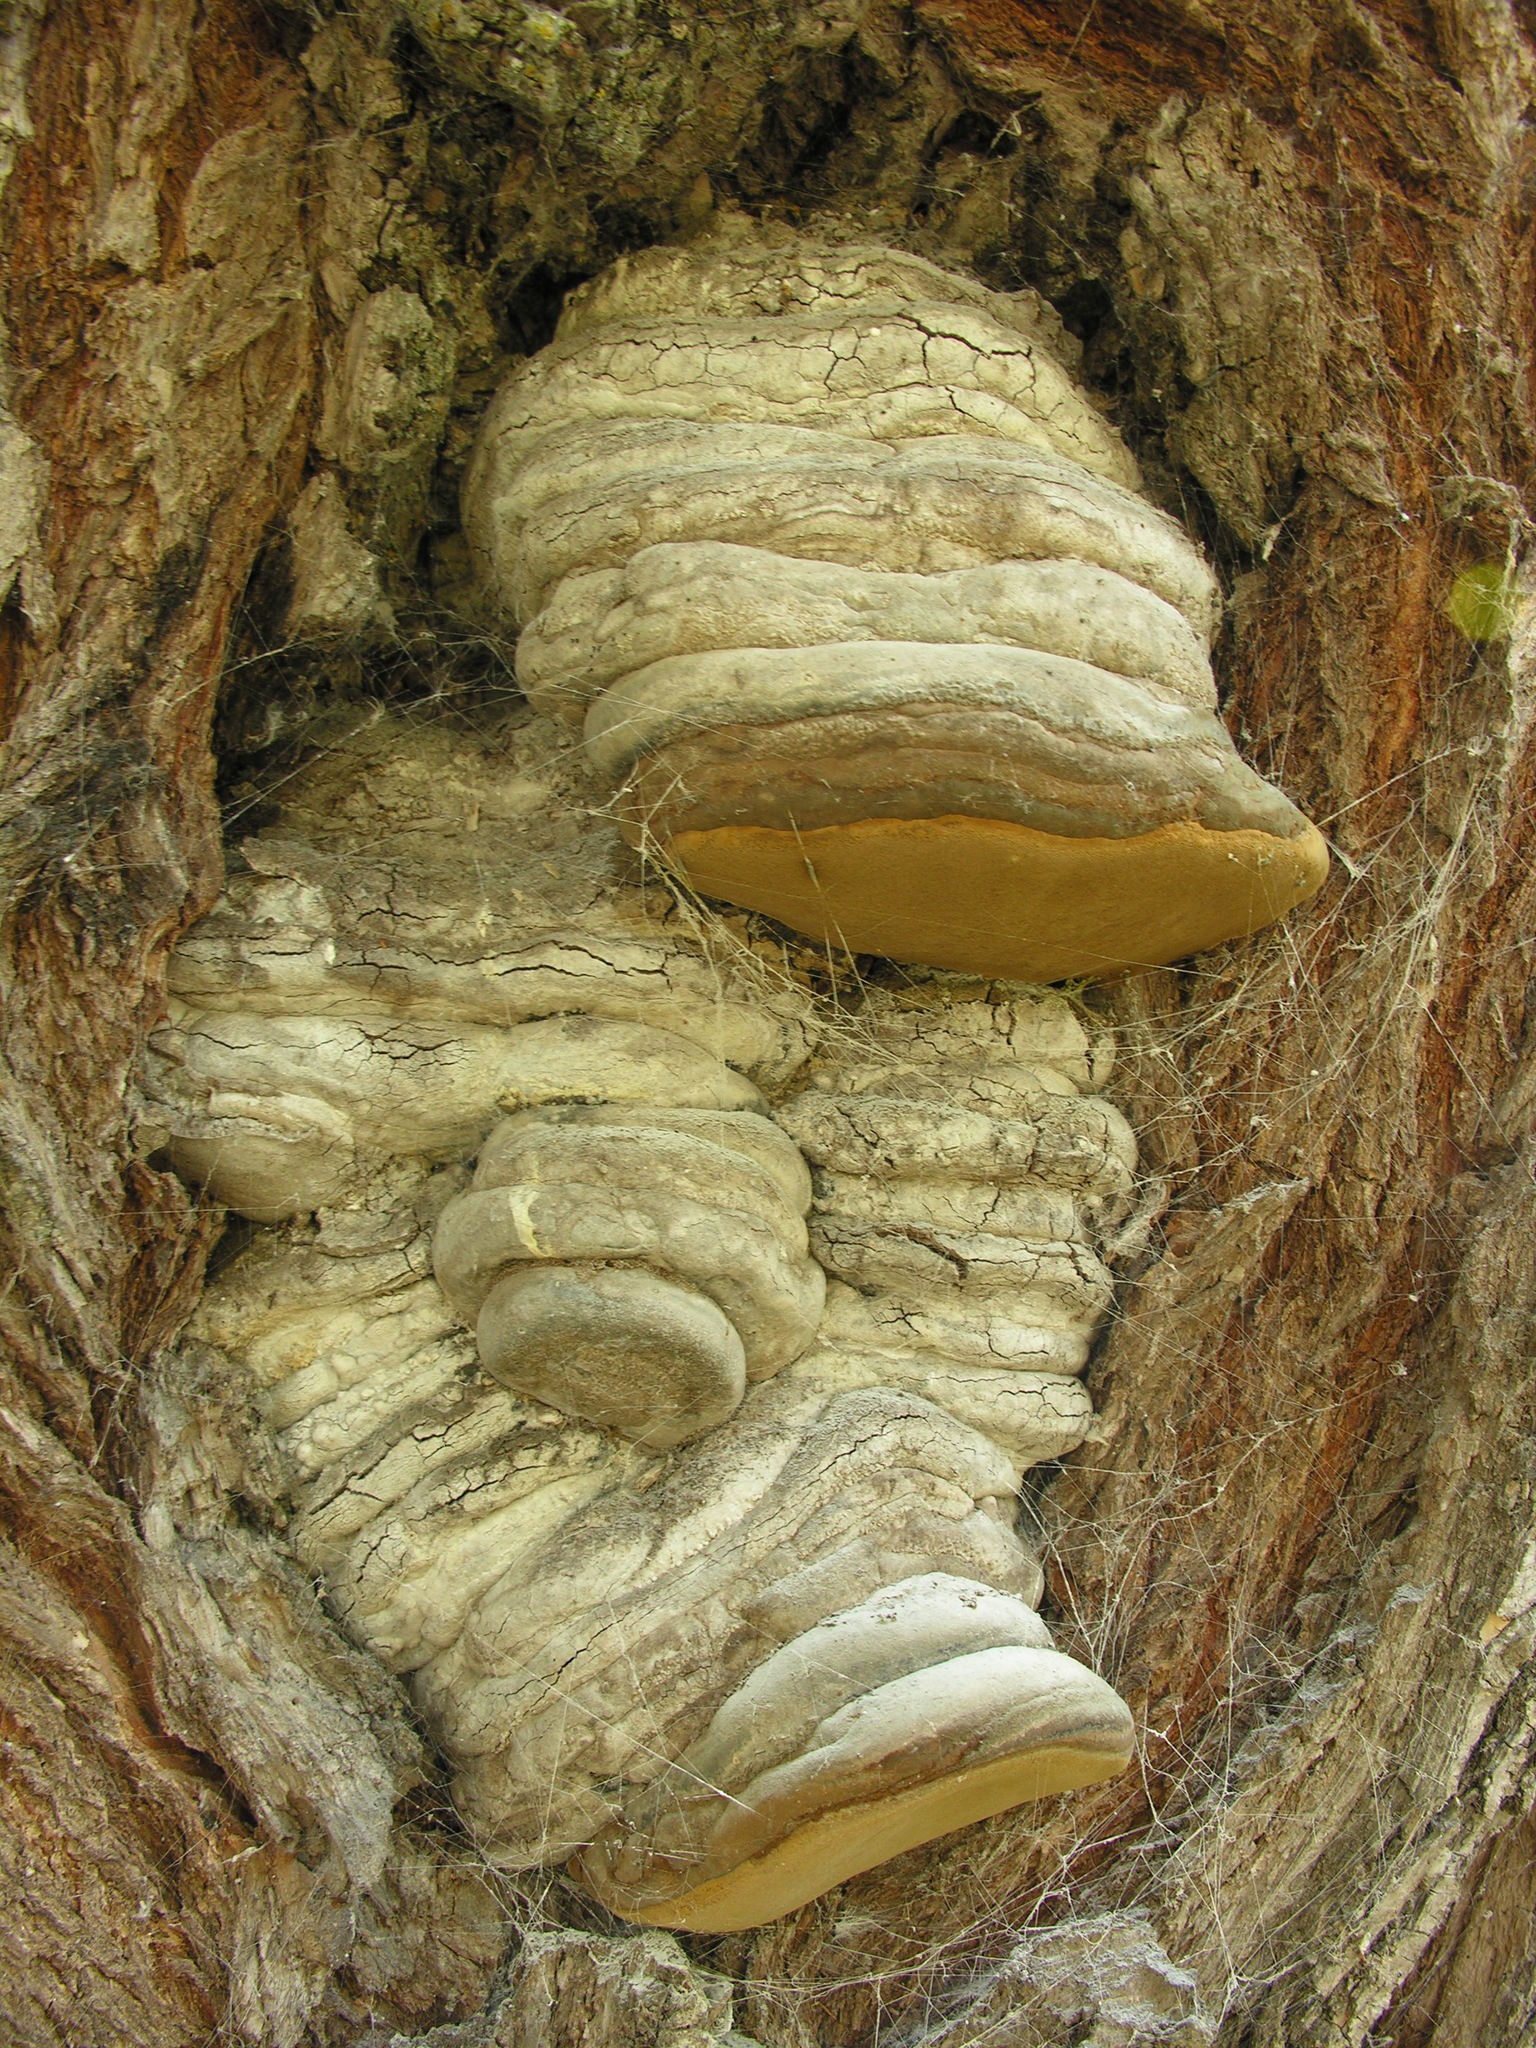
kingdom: Fungi
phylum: Basidiomycota
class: Agaricomycetes
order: Polyporales
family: Polyporaceae
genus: Fomes
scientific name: Fomes fomentarius
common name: Hoof fungus
